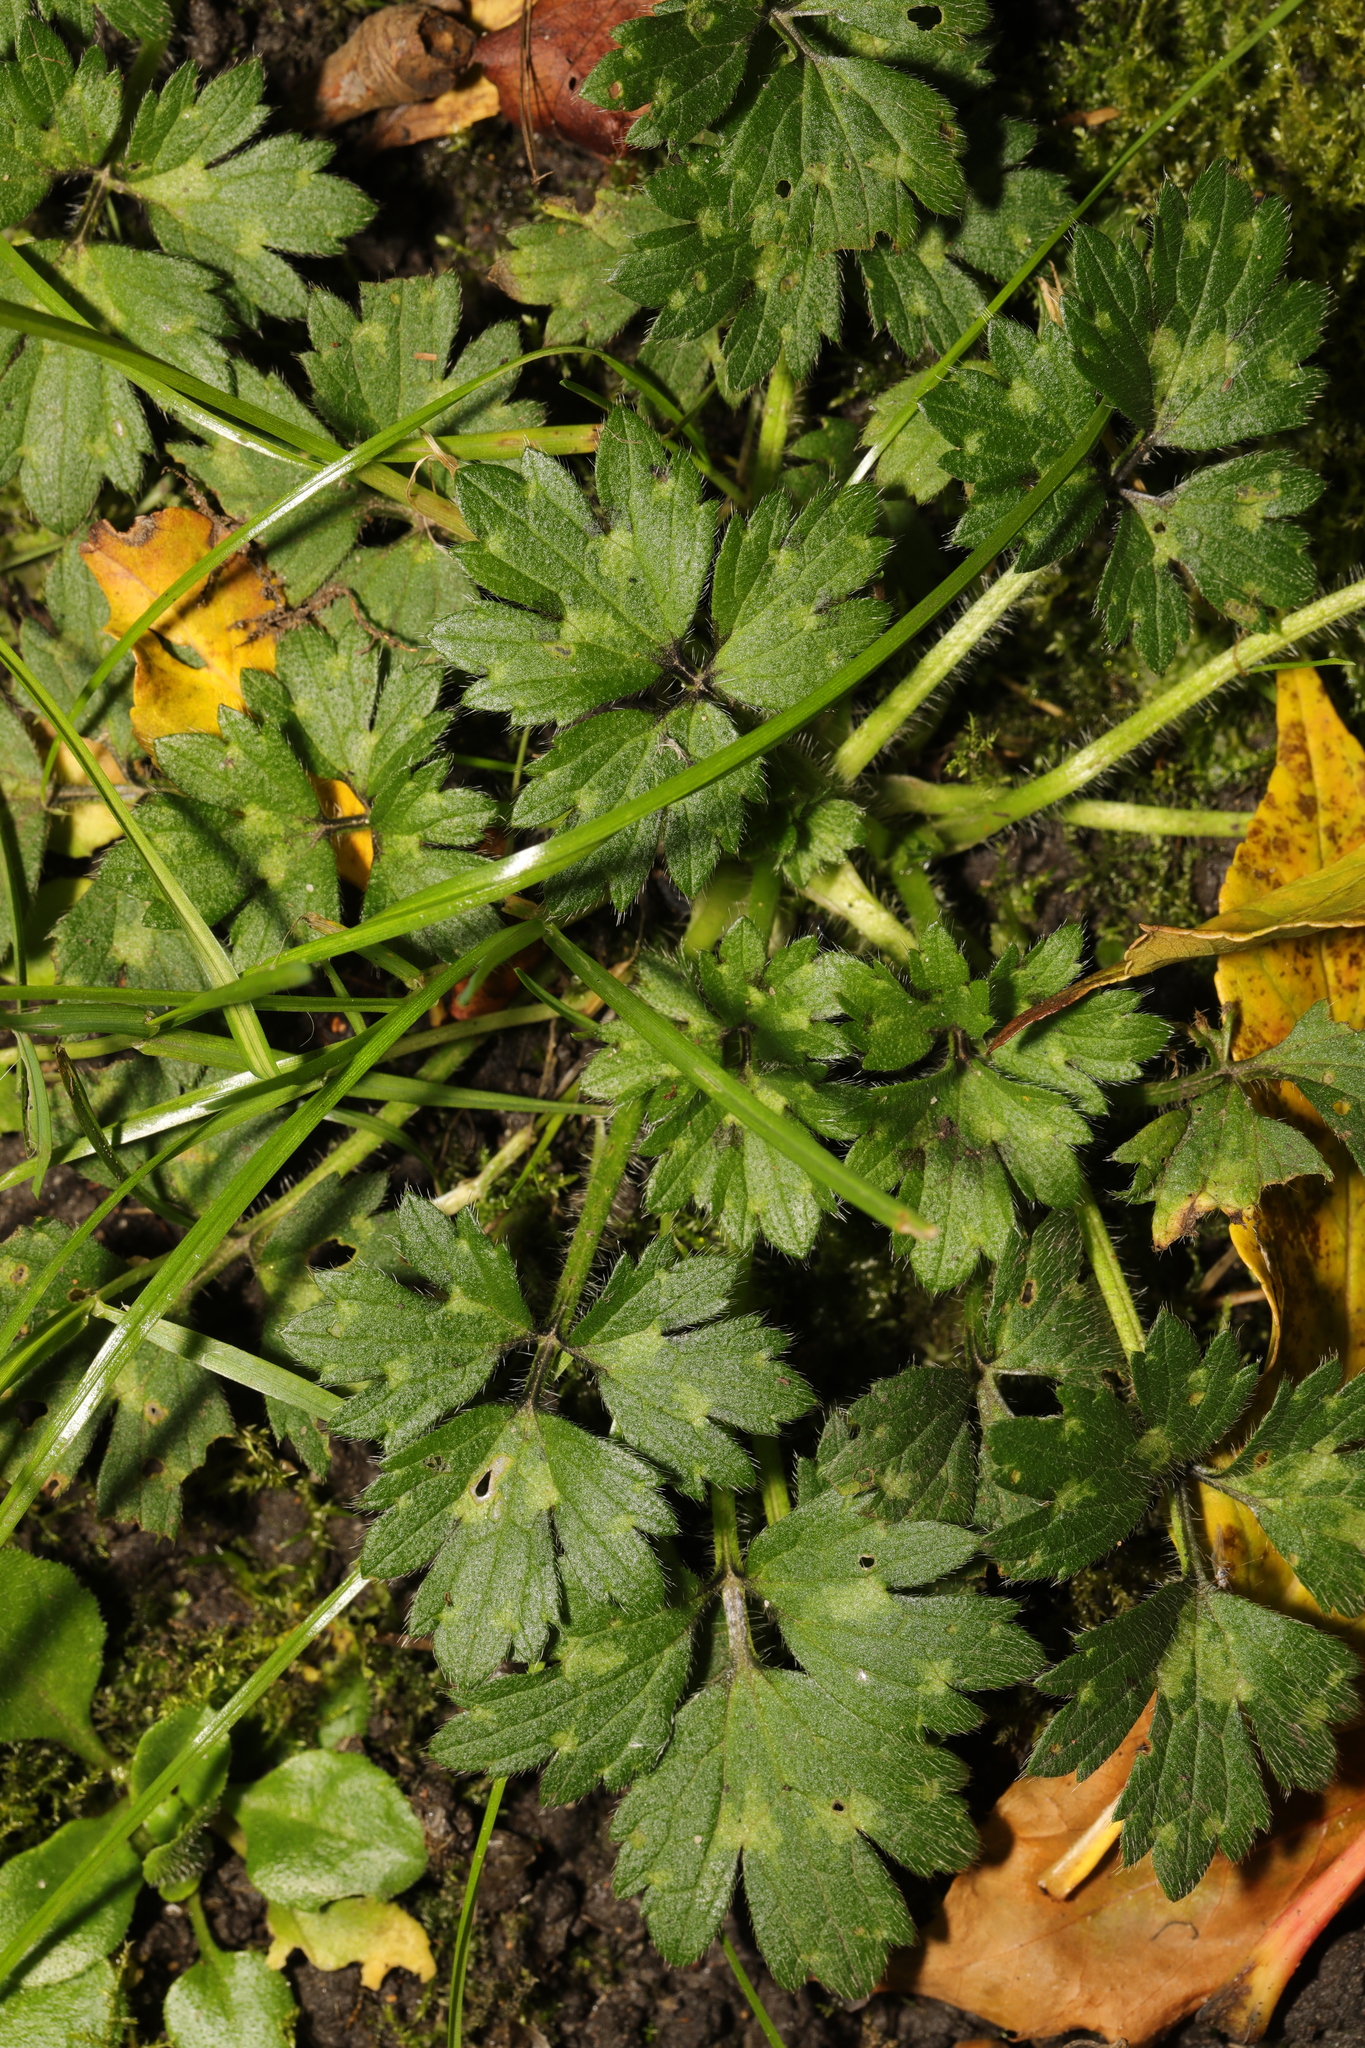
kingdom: Plantae
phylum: Tracheophyta
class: Magnoliopsida
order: Ranunculales
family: Ranunculaceae
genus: Ranunculus
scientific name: Ranunculus repens
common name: Creeping buttercup
